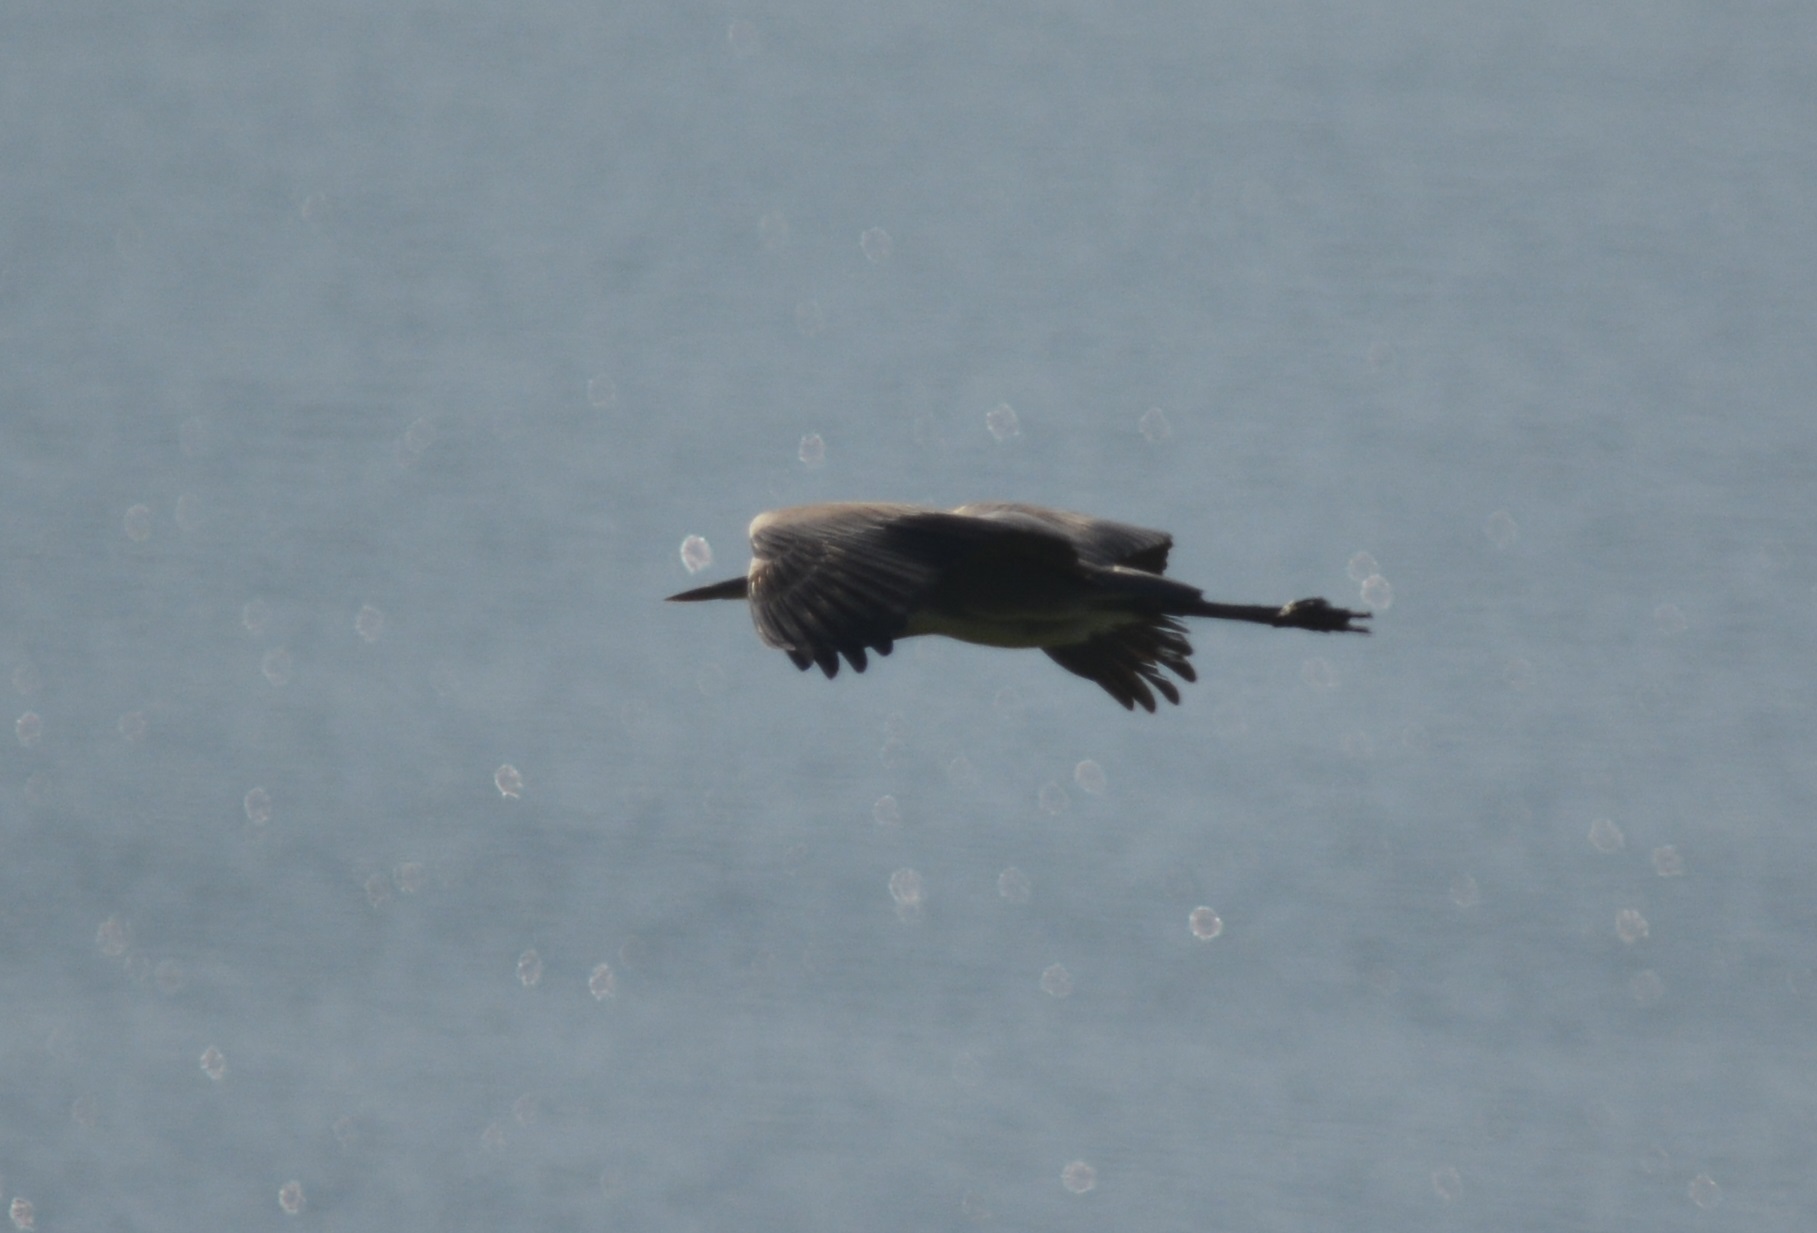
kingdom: Animalia
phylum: Chordata
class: Aves
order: Pelecaniformes
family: Ardeidae
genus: Ardea
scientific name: Ardea cinerea
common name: Grey heron
